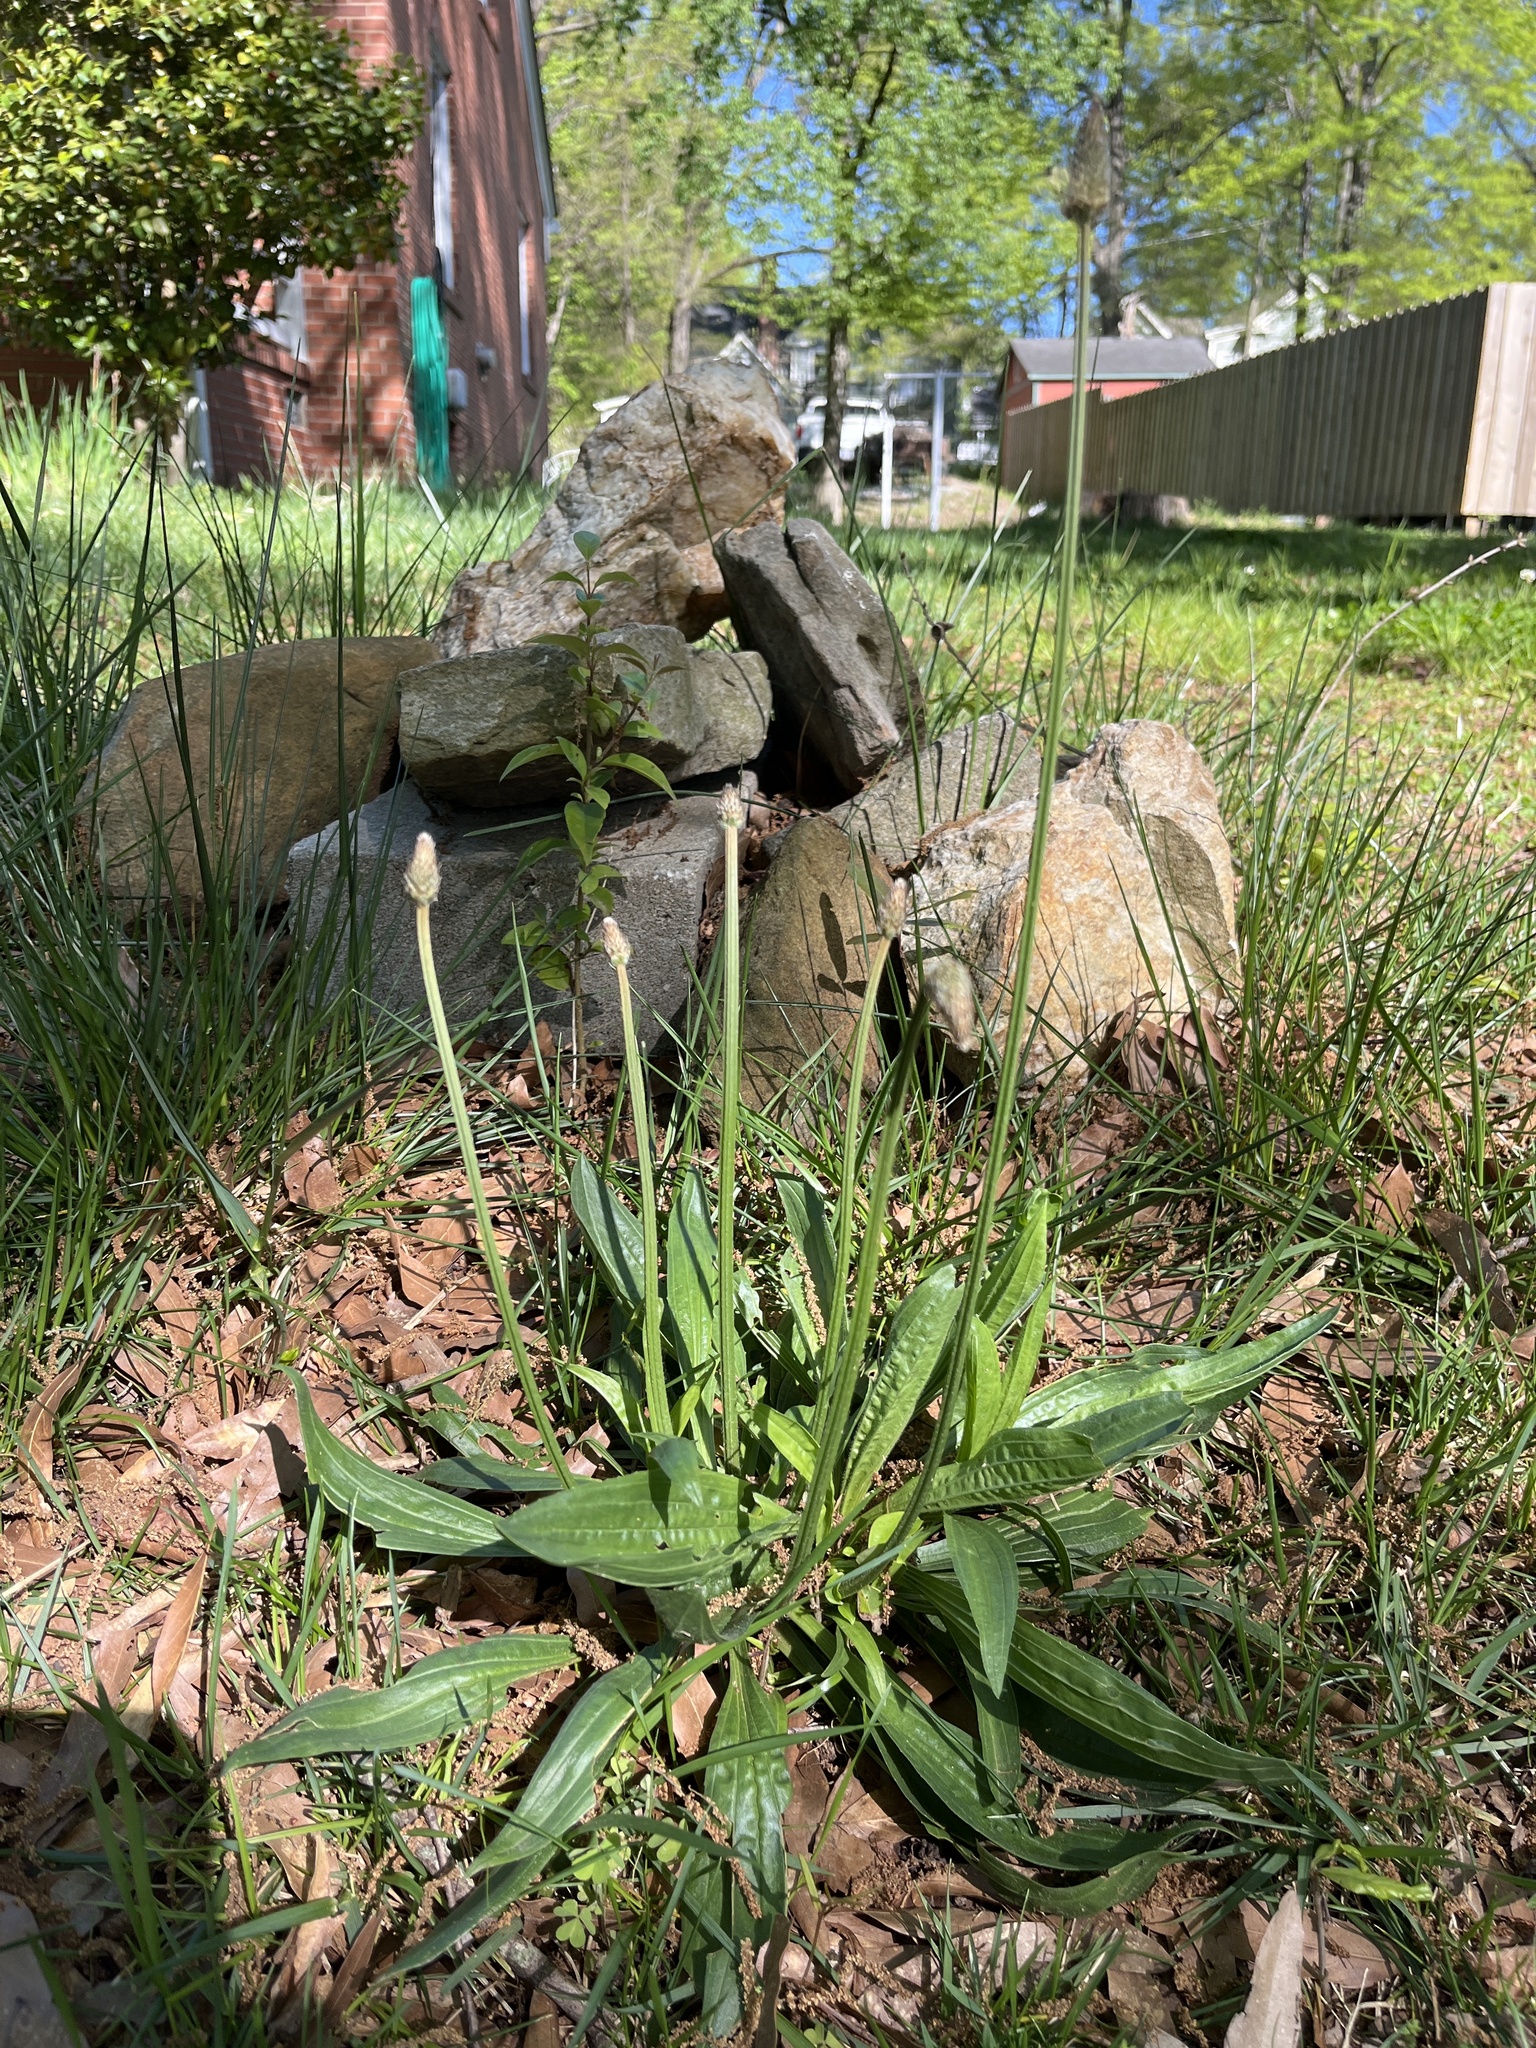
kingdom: Plantae
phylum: Tracheophyta
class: Magnoliopsida
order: Lamiales
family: Plantaginaceae
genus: Plantago
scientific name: Plantago lanceolata
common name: Ribwort plantain
